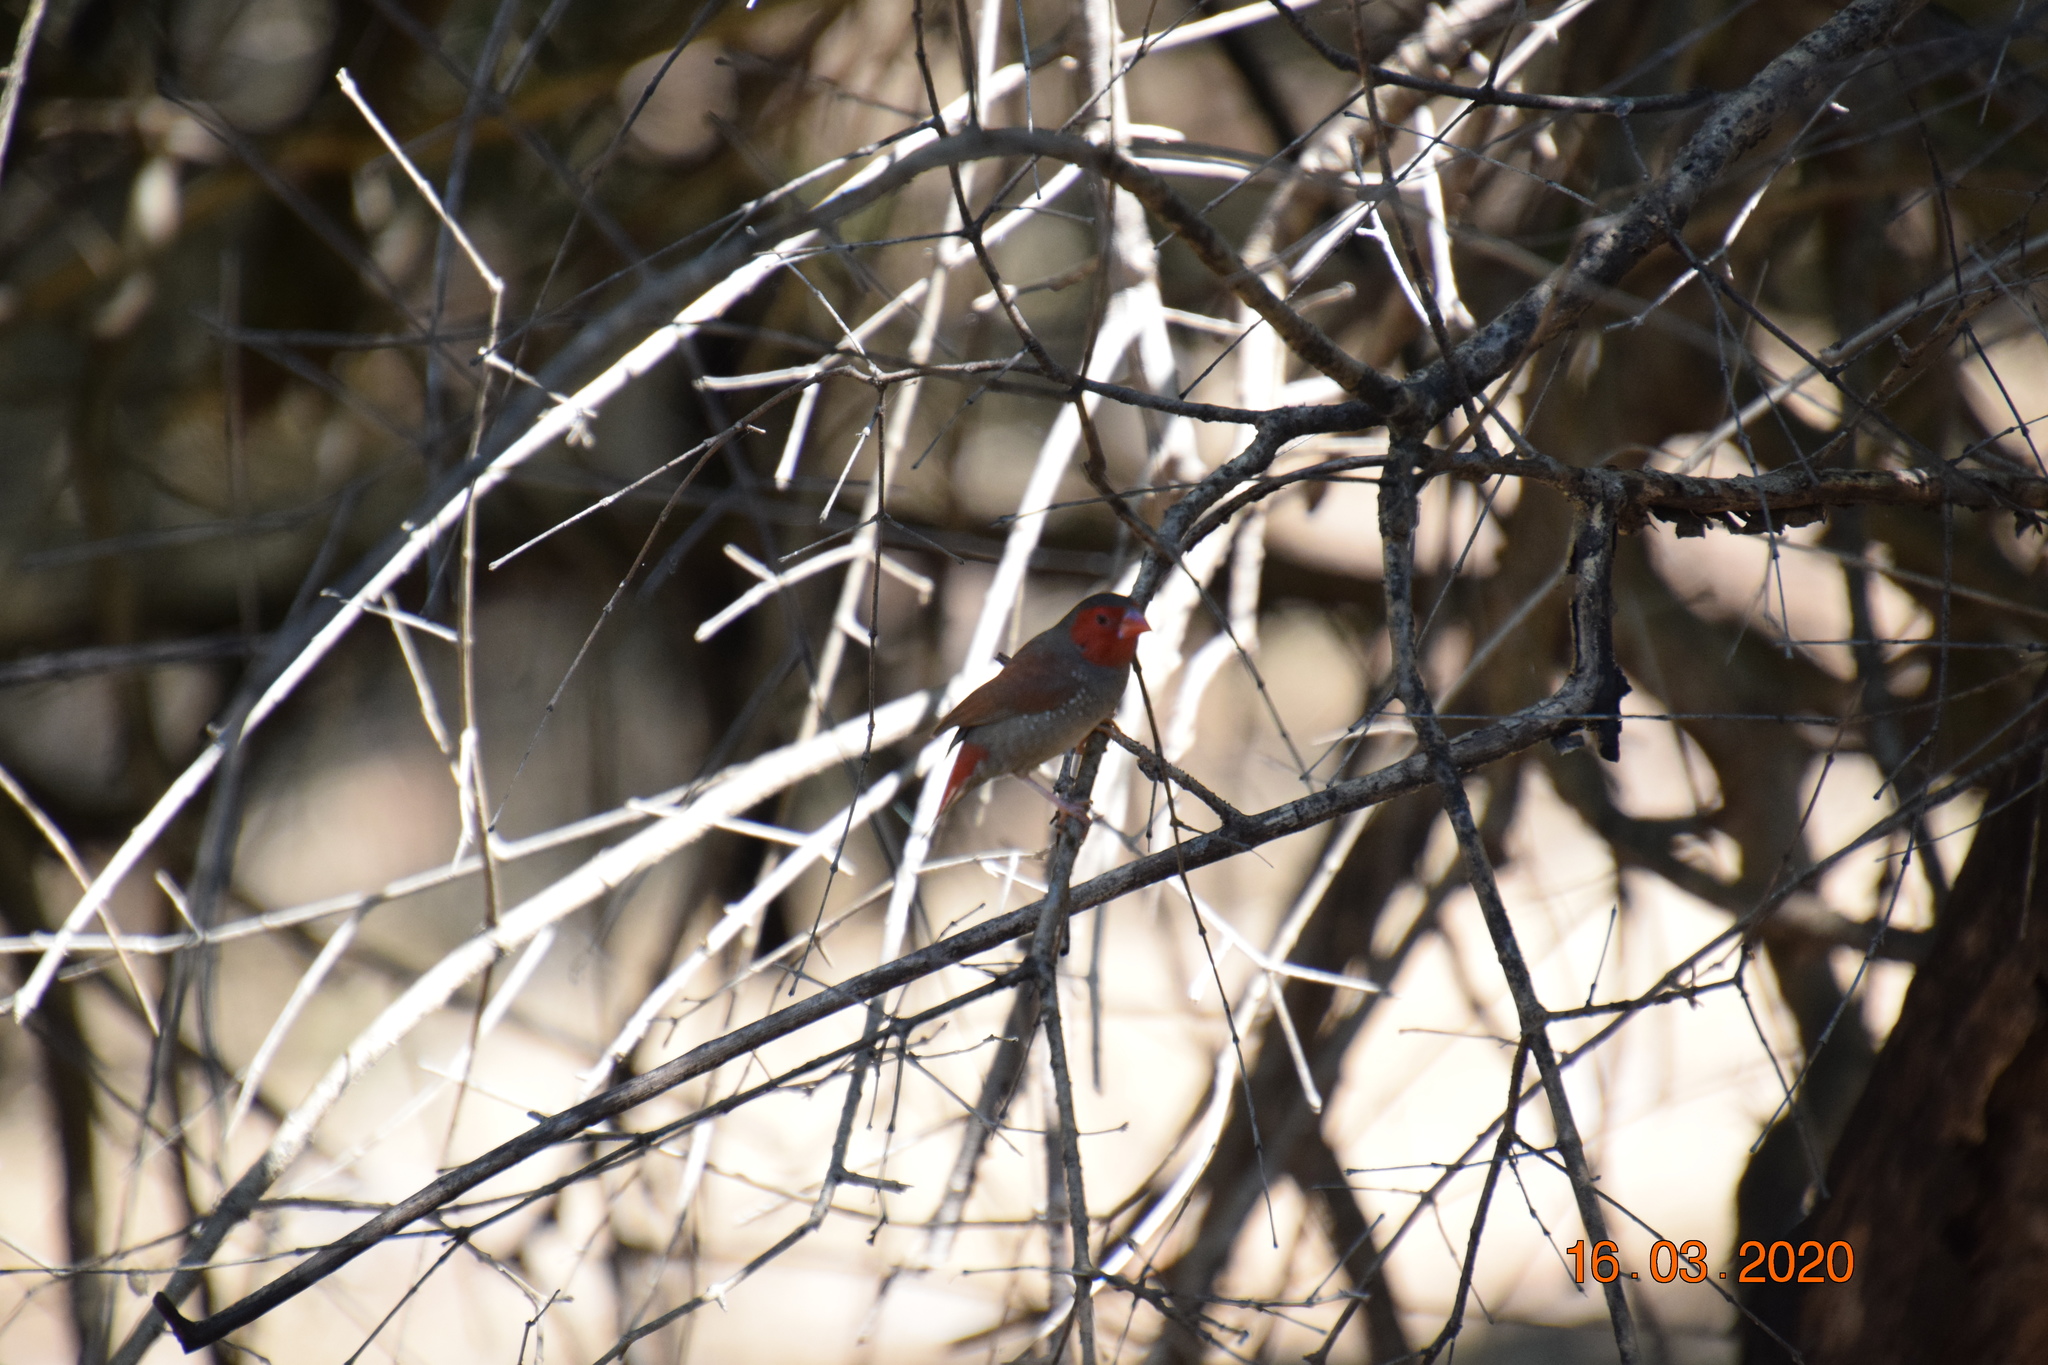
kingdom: Animalia
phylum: Chordata
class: Aves
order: Passeriformes
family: Estrildidae
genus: Neochmia
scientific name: Neochmia phaeton
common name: Crimson finch
